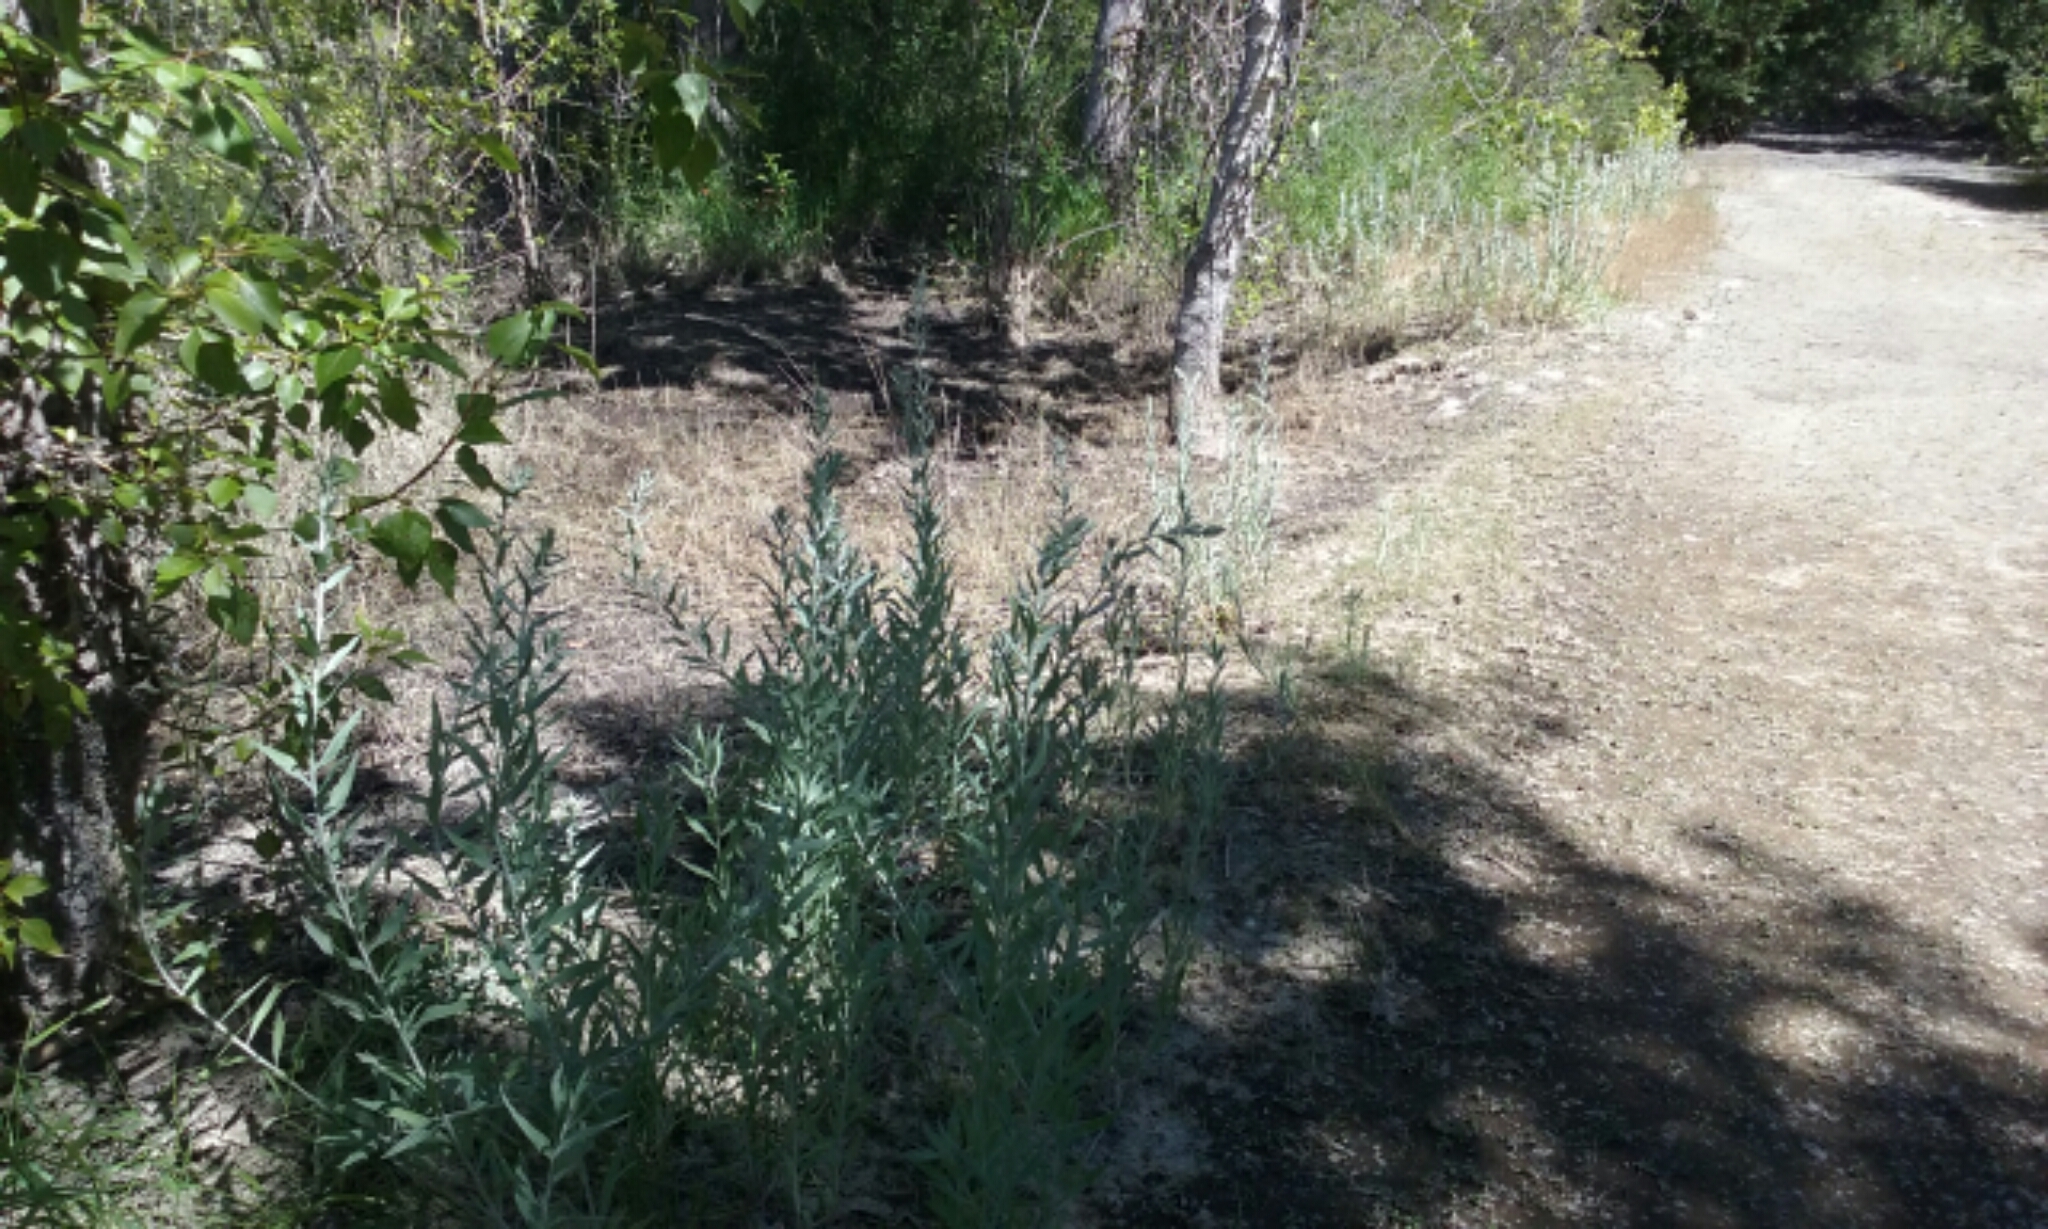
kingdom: Plantae
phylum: Tracheophyta
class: Magnoliopsida
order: Asterales
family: Asteraceae
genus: Artemisia
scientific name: Artemisia ludoviciana
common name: Western mugwort
